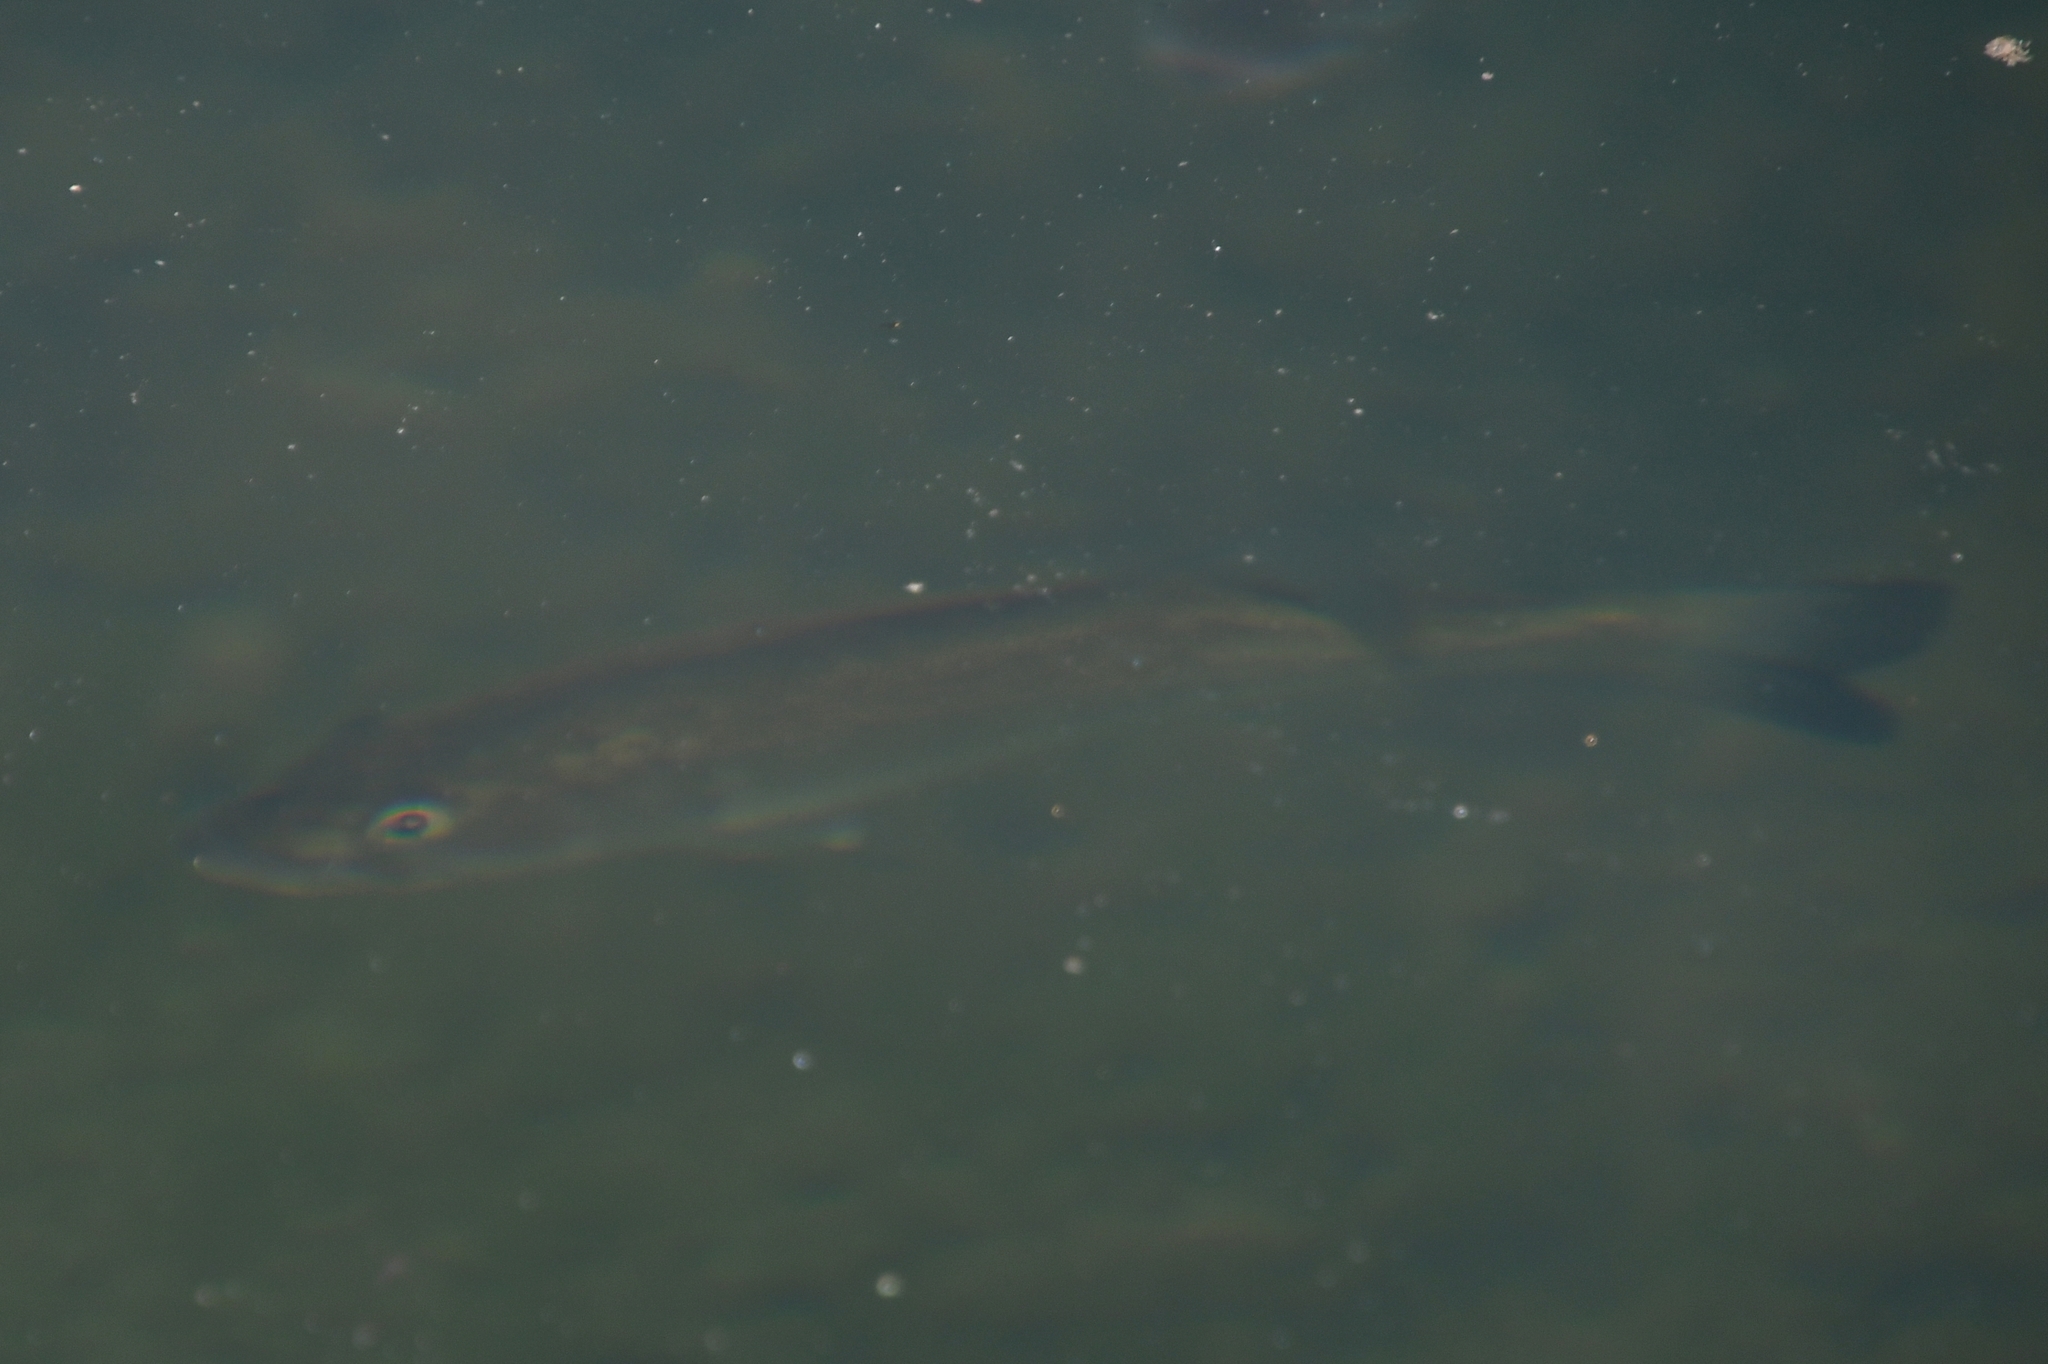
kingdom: Animalia
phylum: Chordata
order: Perciformes
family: Centrarchidae
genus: Micropterus
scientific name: Micropterus salmoides
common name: Largemouth bass
